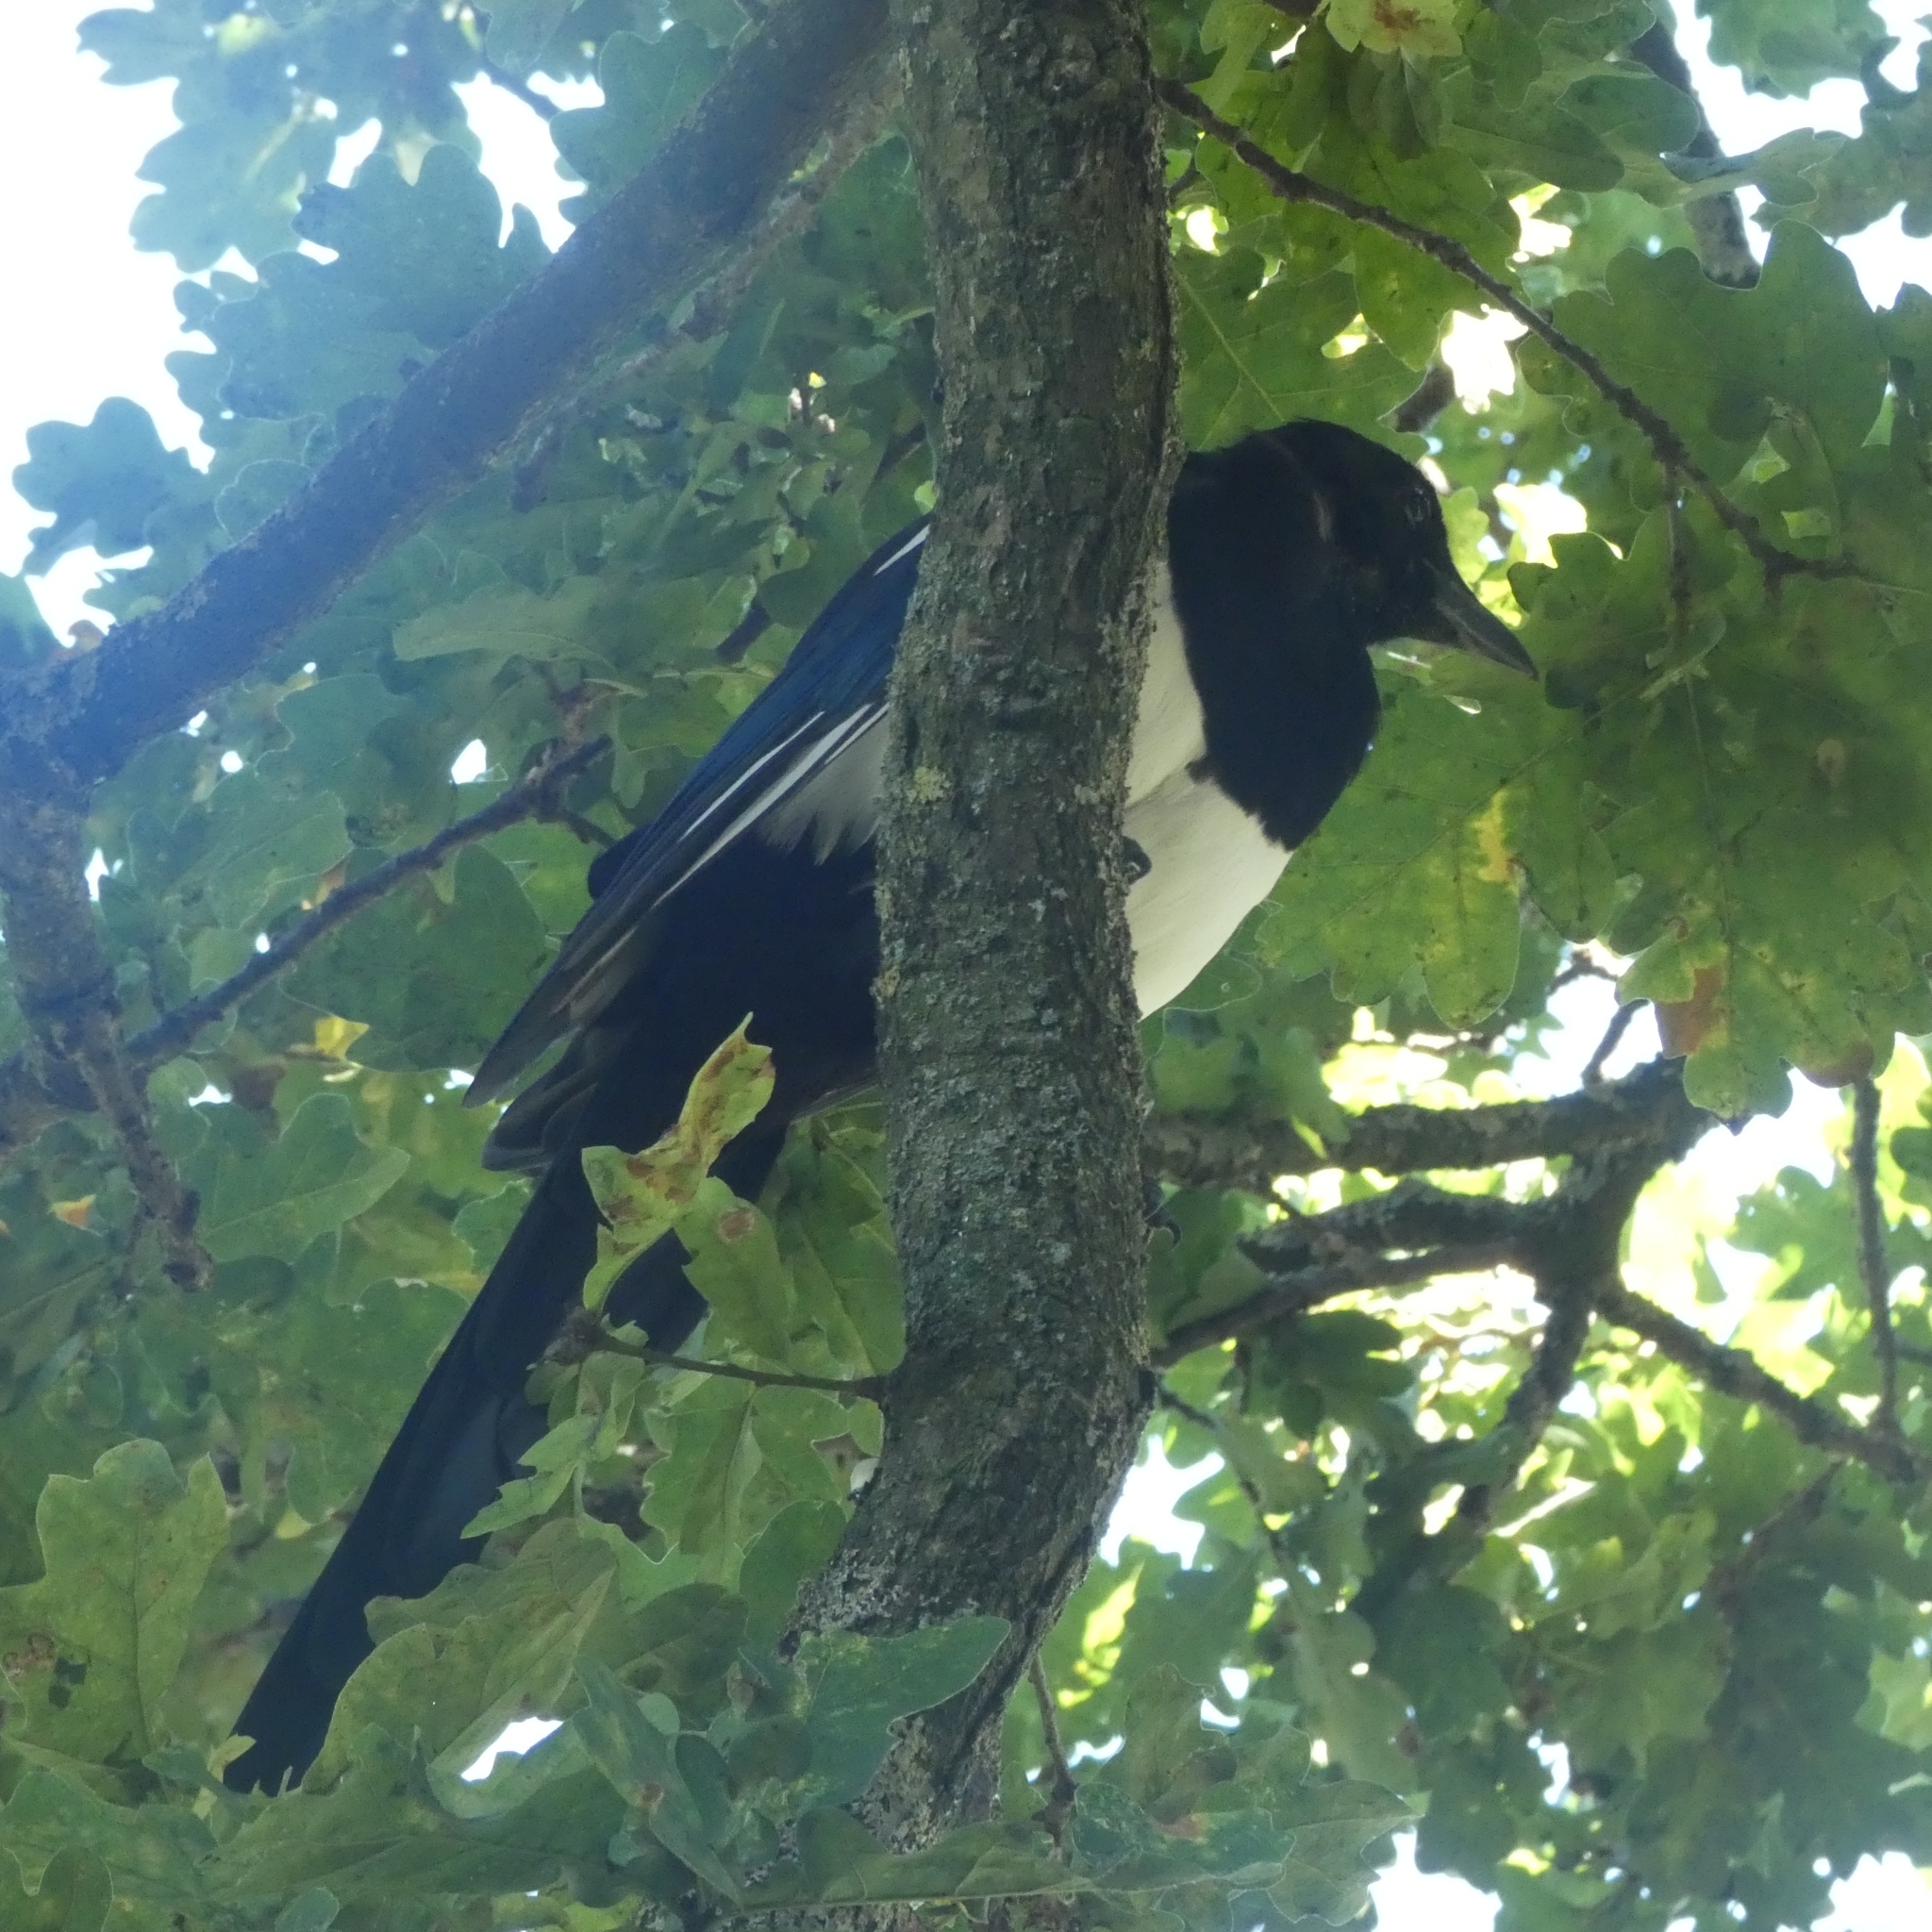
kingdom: Animalia
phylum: Chordata
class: Aves
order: Passeriformes
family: Corvidae
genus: Pica
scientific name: Pica pica
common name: Eurasian magpie
